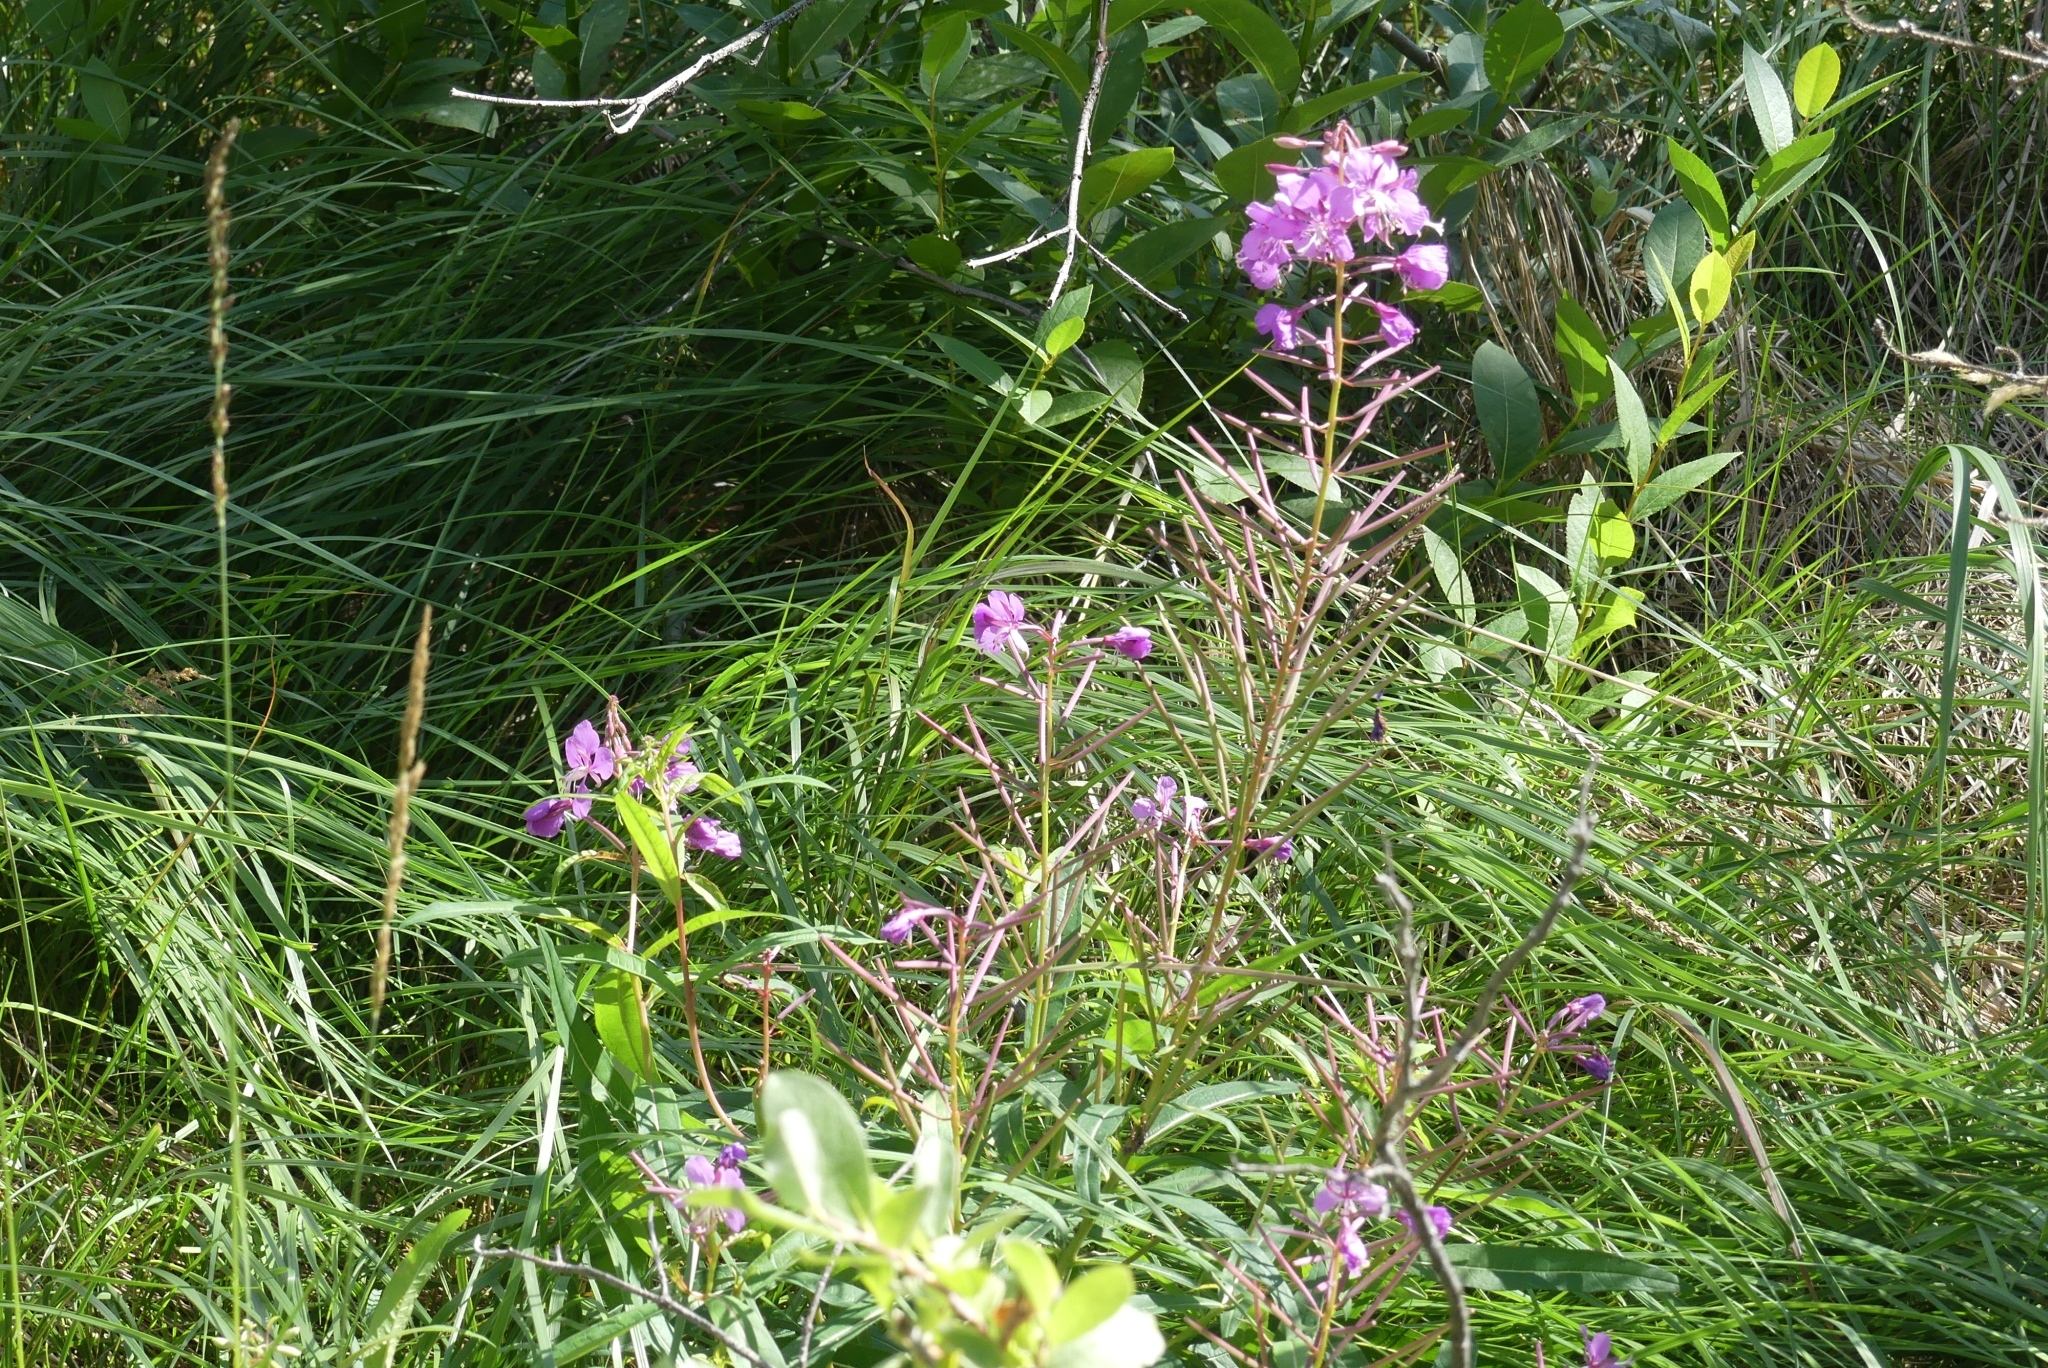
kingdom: Plantae
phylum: Tracheophyta
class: Magnoliopsida
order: Myrtales
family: Onagraceae
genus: Chamaenerion
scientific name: Chamaenerion angustifolium
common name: Fireweed
